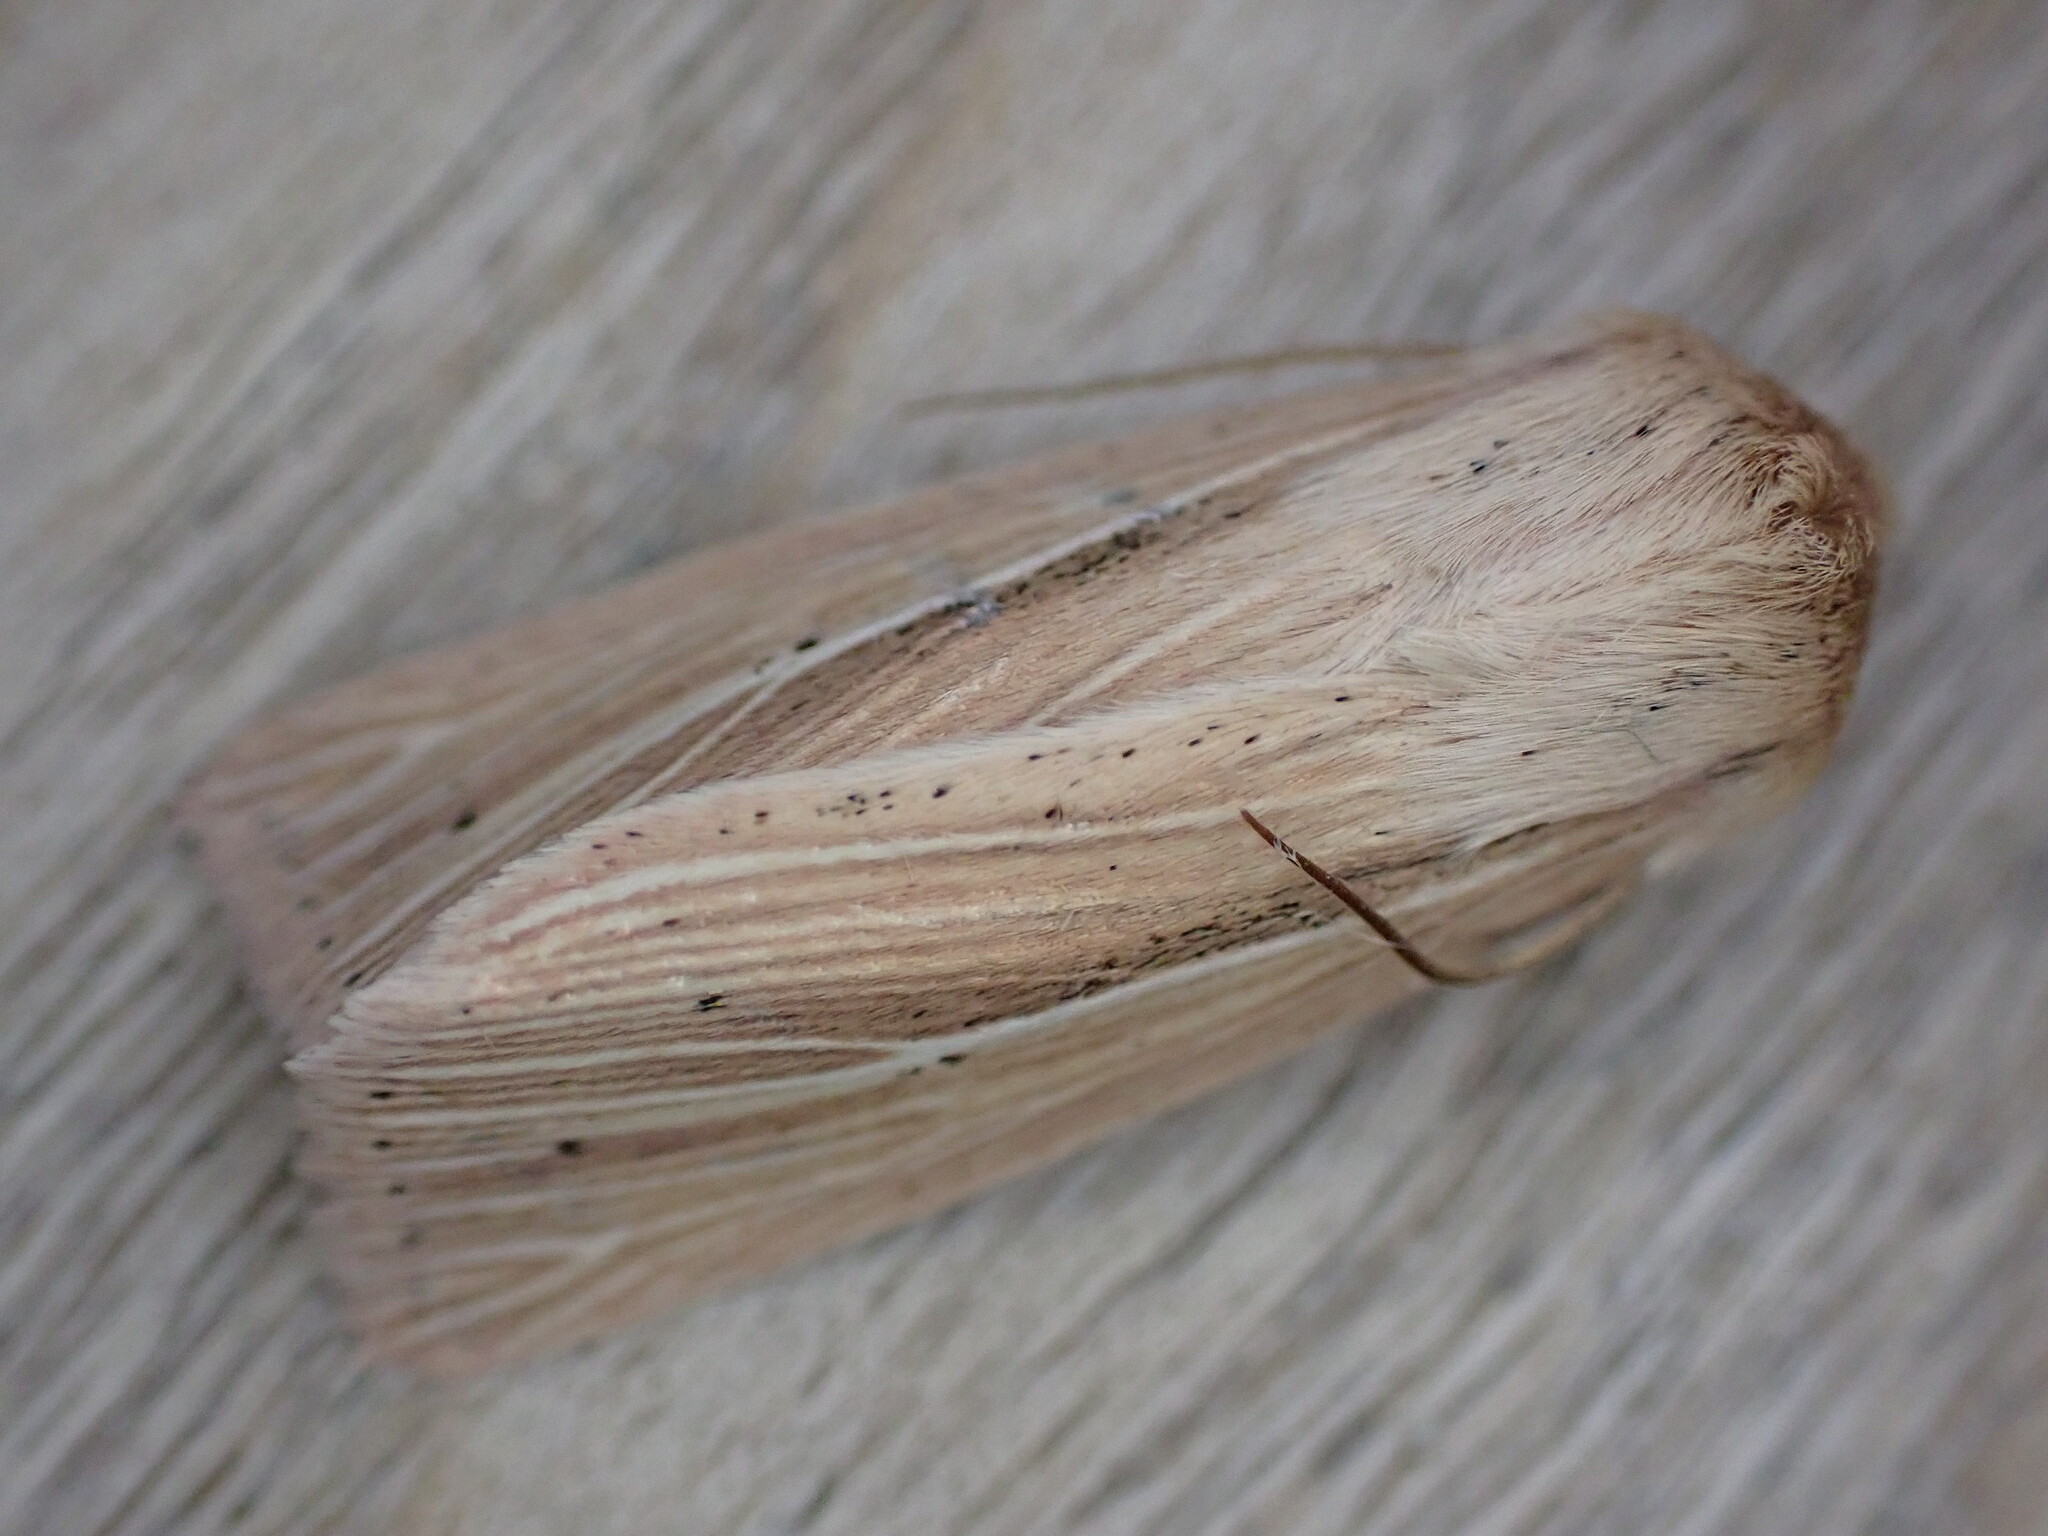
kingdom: Animalia
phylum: Arthropoda
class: Insecta
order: Lepidoptera
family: Noctuidae
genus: Mythimna
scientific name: Mythimna impura
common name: Smoky wainscot
